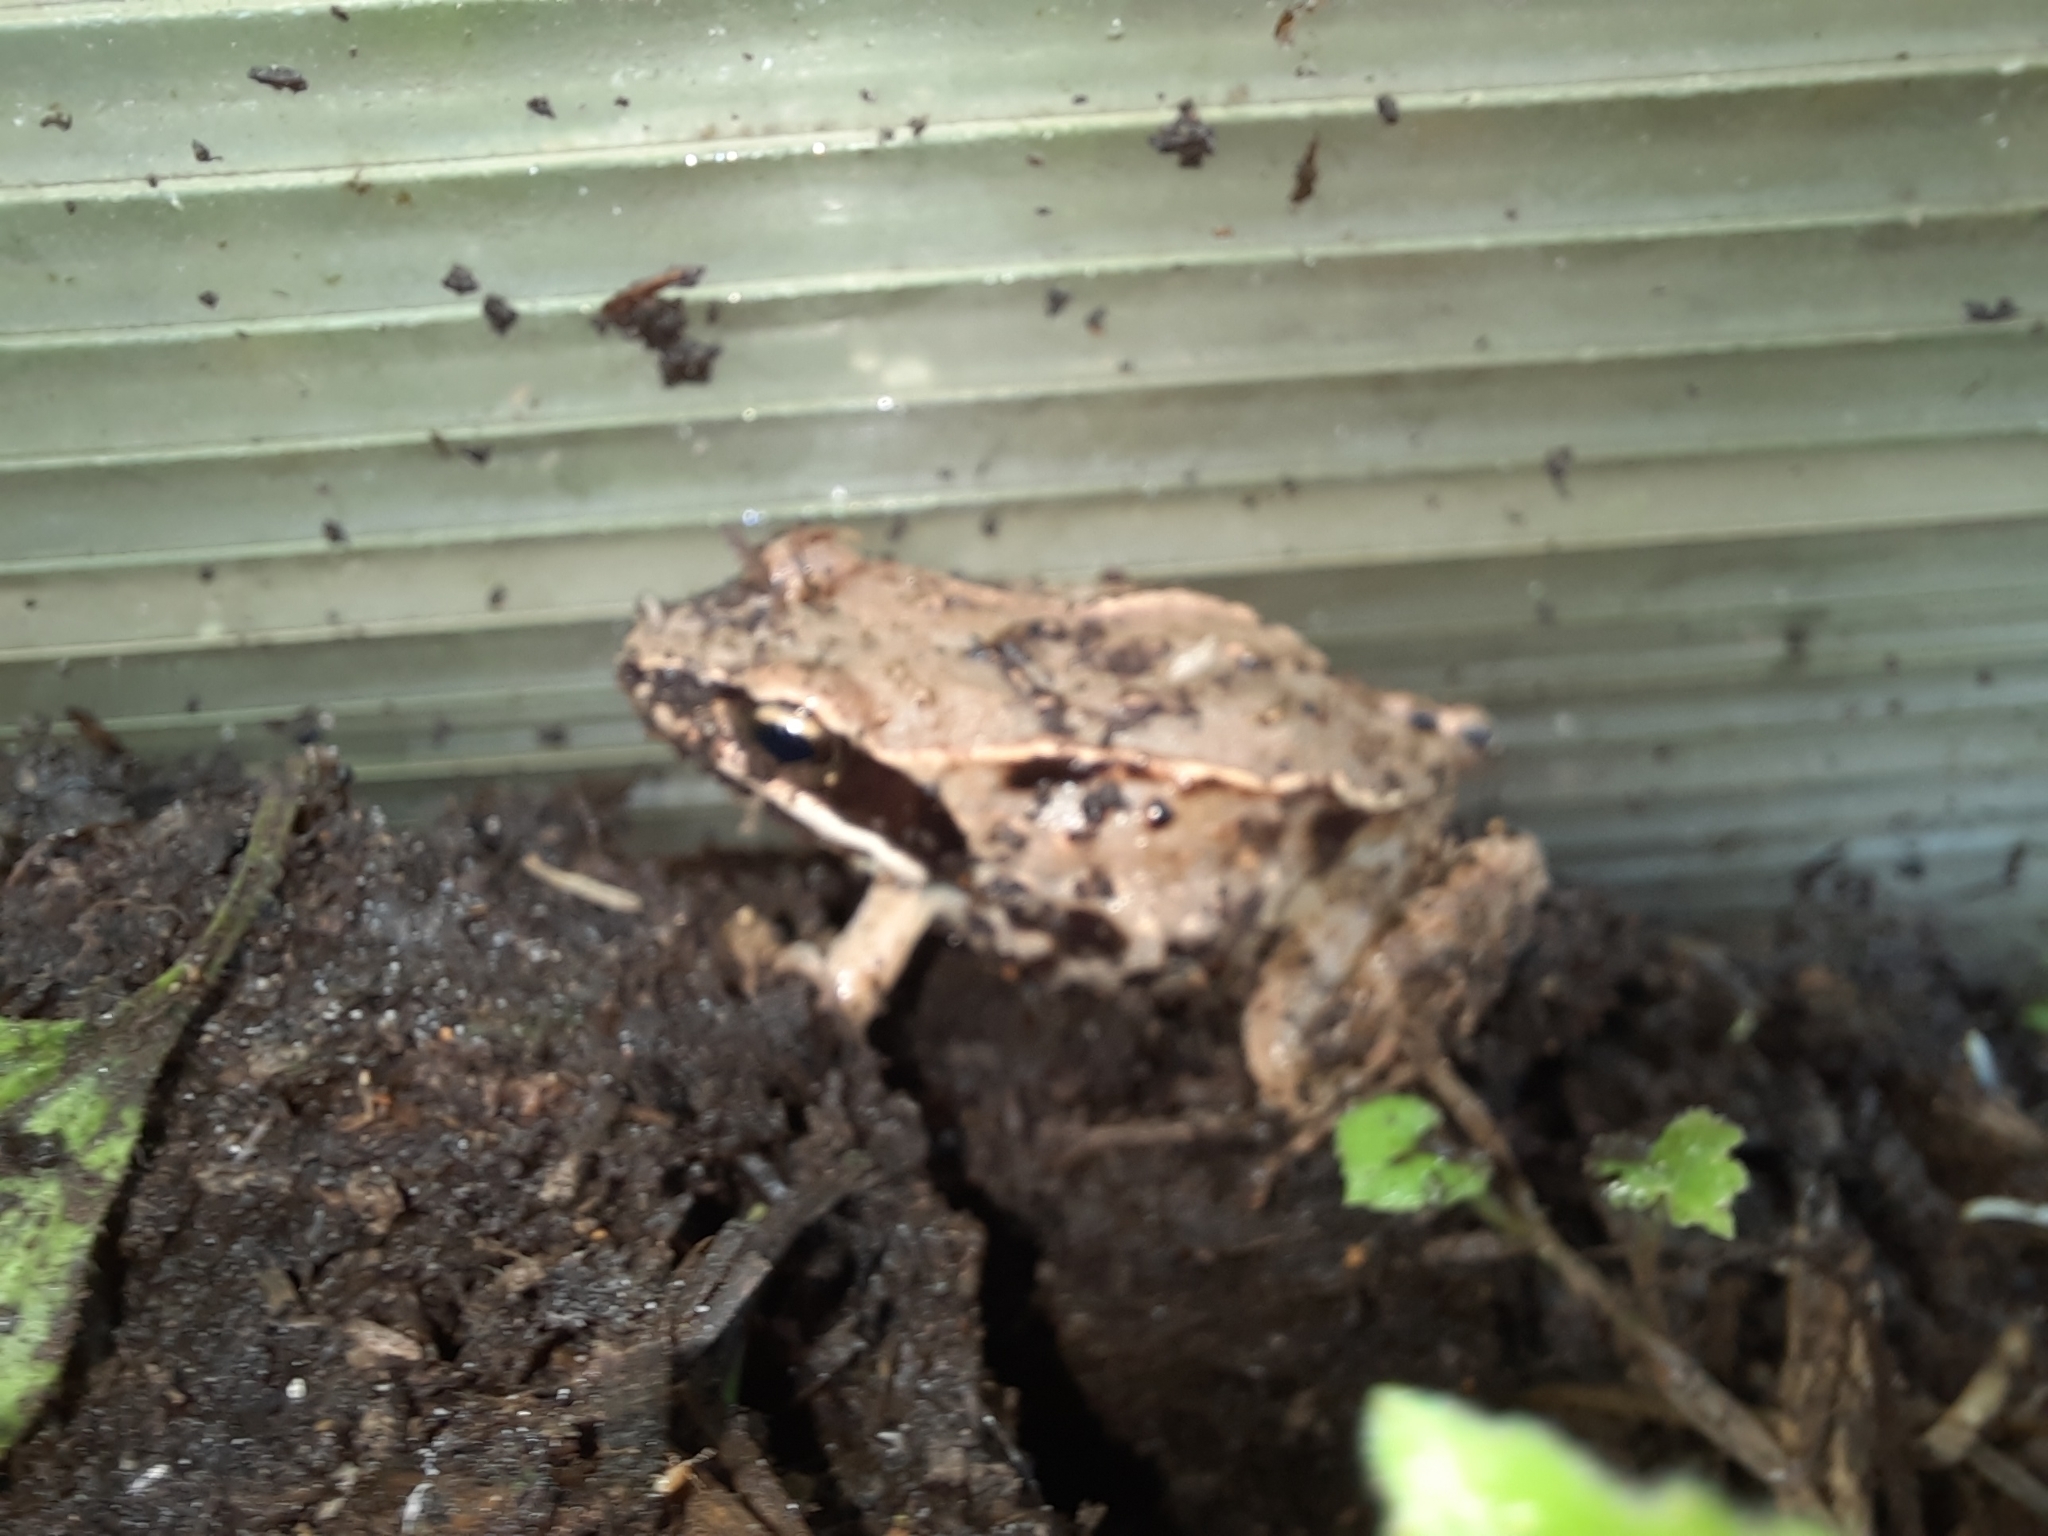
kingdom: Animalia
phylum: Chordata
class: Amphibia
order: Anura
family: Ranidae
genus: Rana
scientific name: Rana temporaria
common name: Common frog
